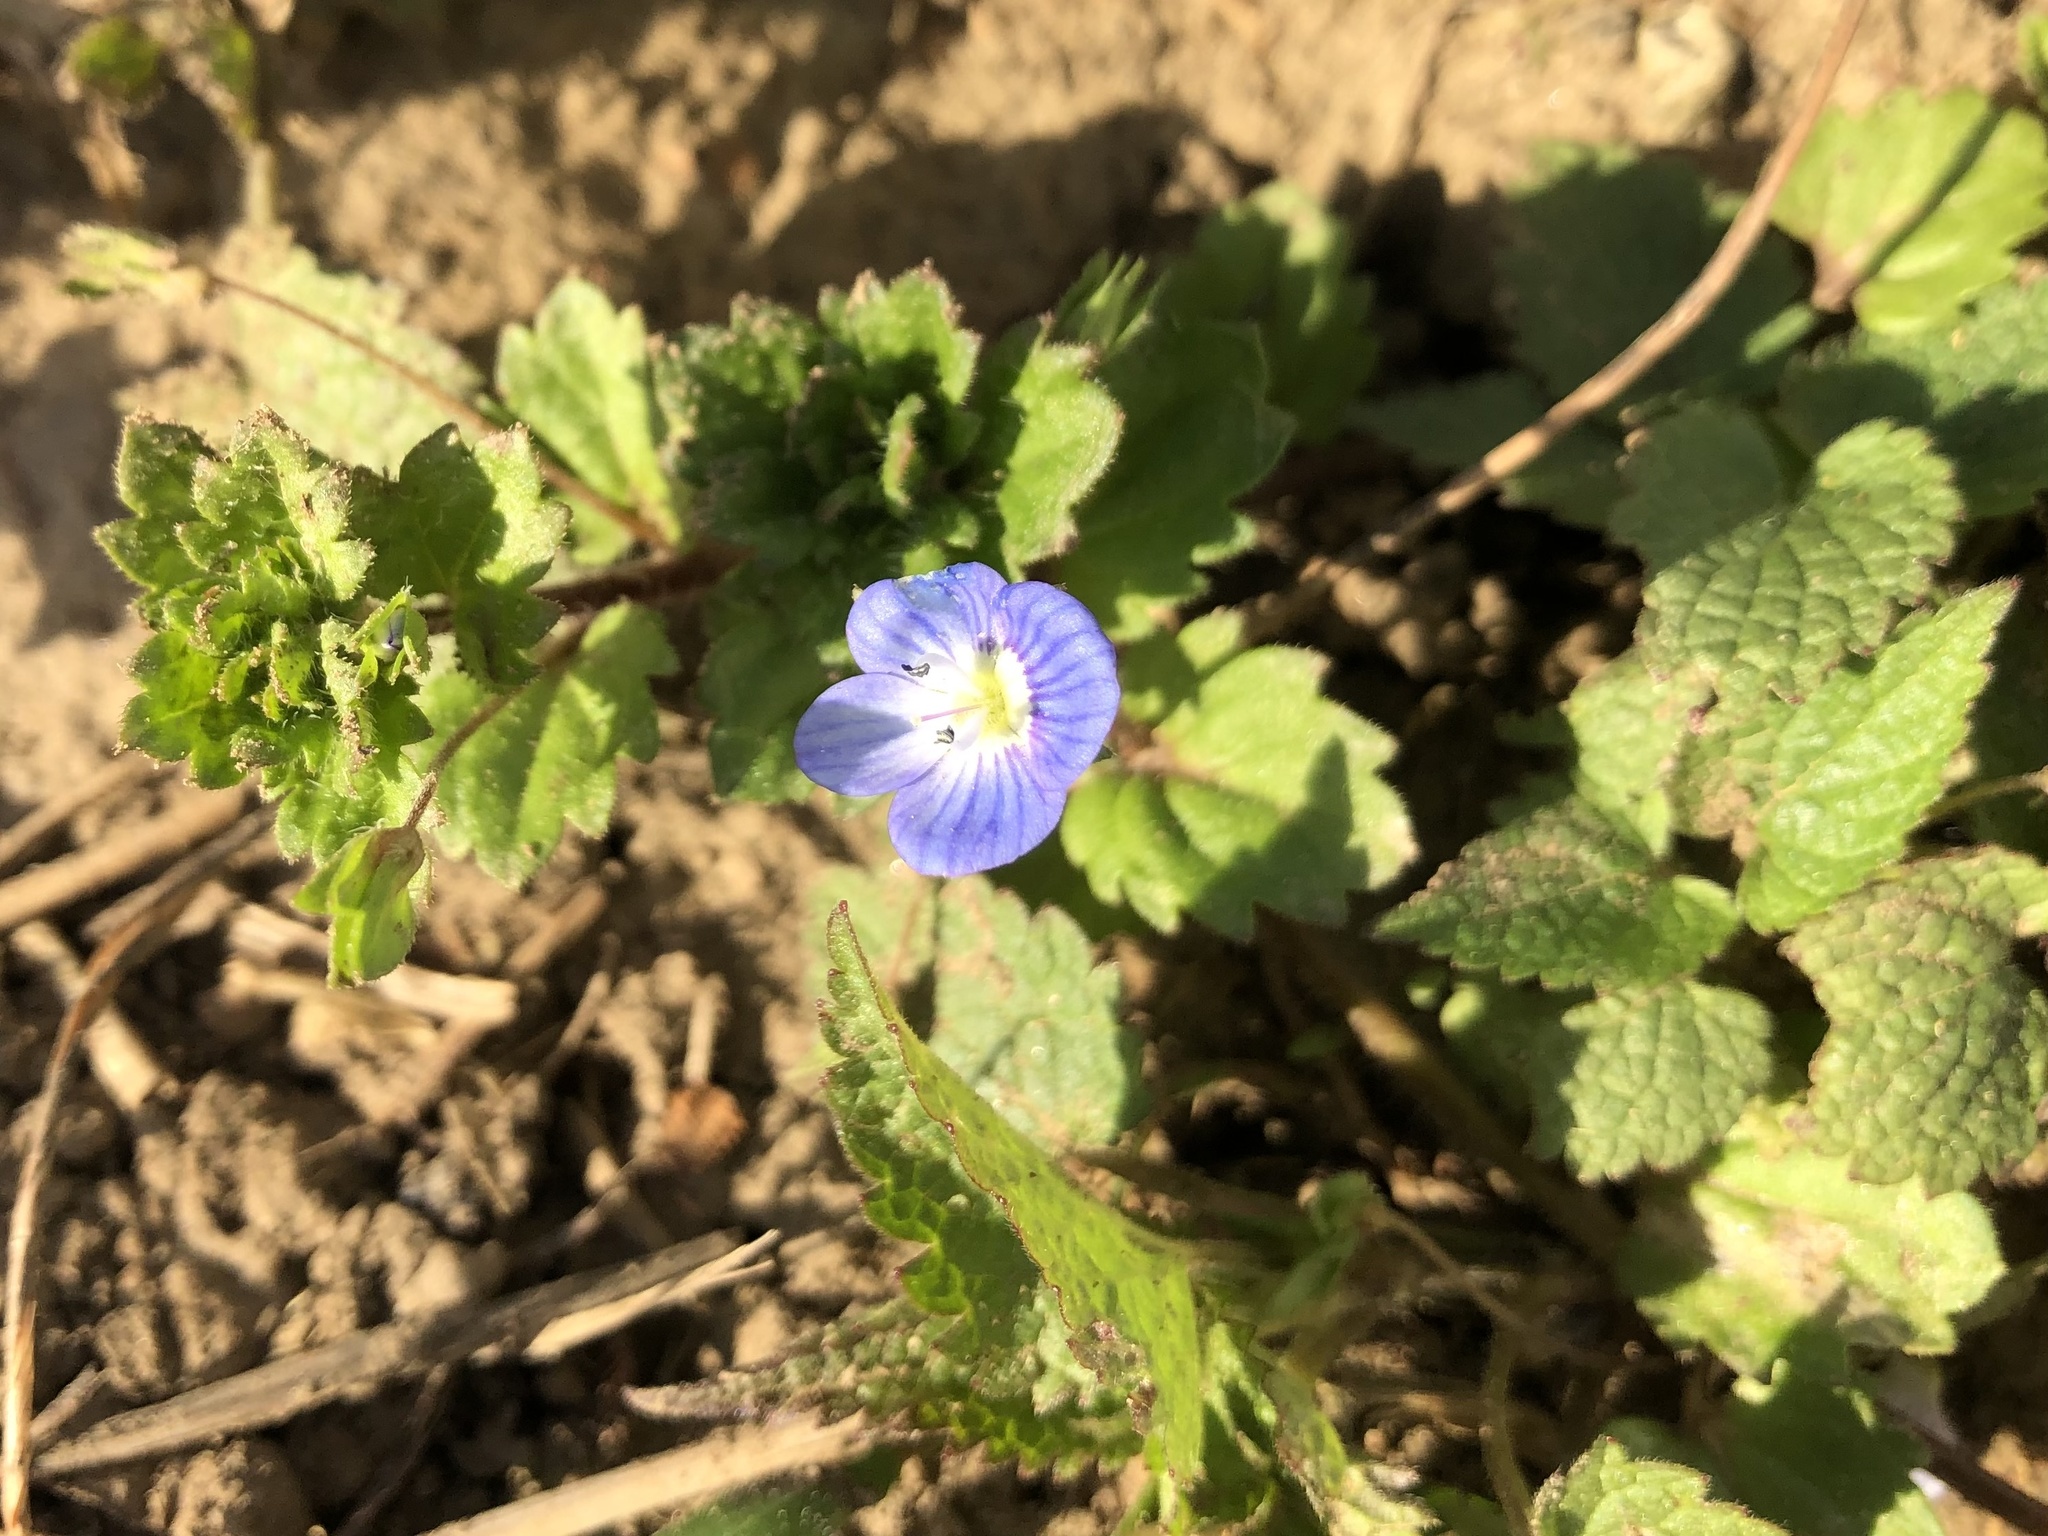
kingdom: Plantae
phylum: Tracheophyta
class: Magnoliopsida
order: Lamiales
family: Plantaginaceae
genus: Veronica
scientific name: Veronica persica
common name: Common field-speedwell
